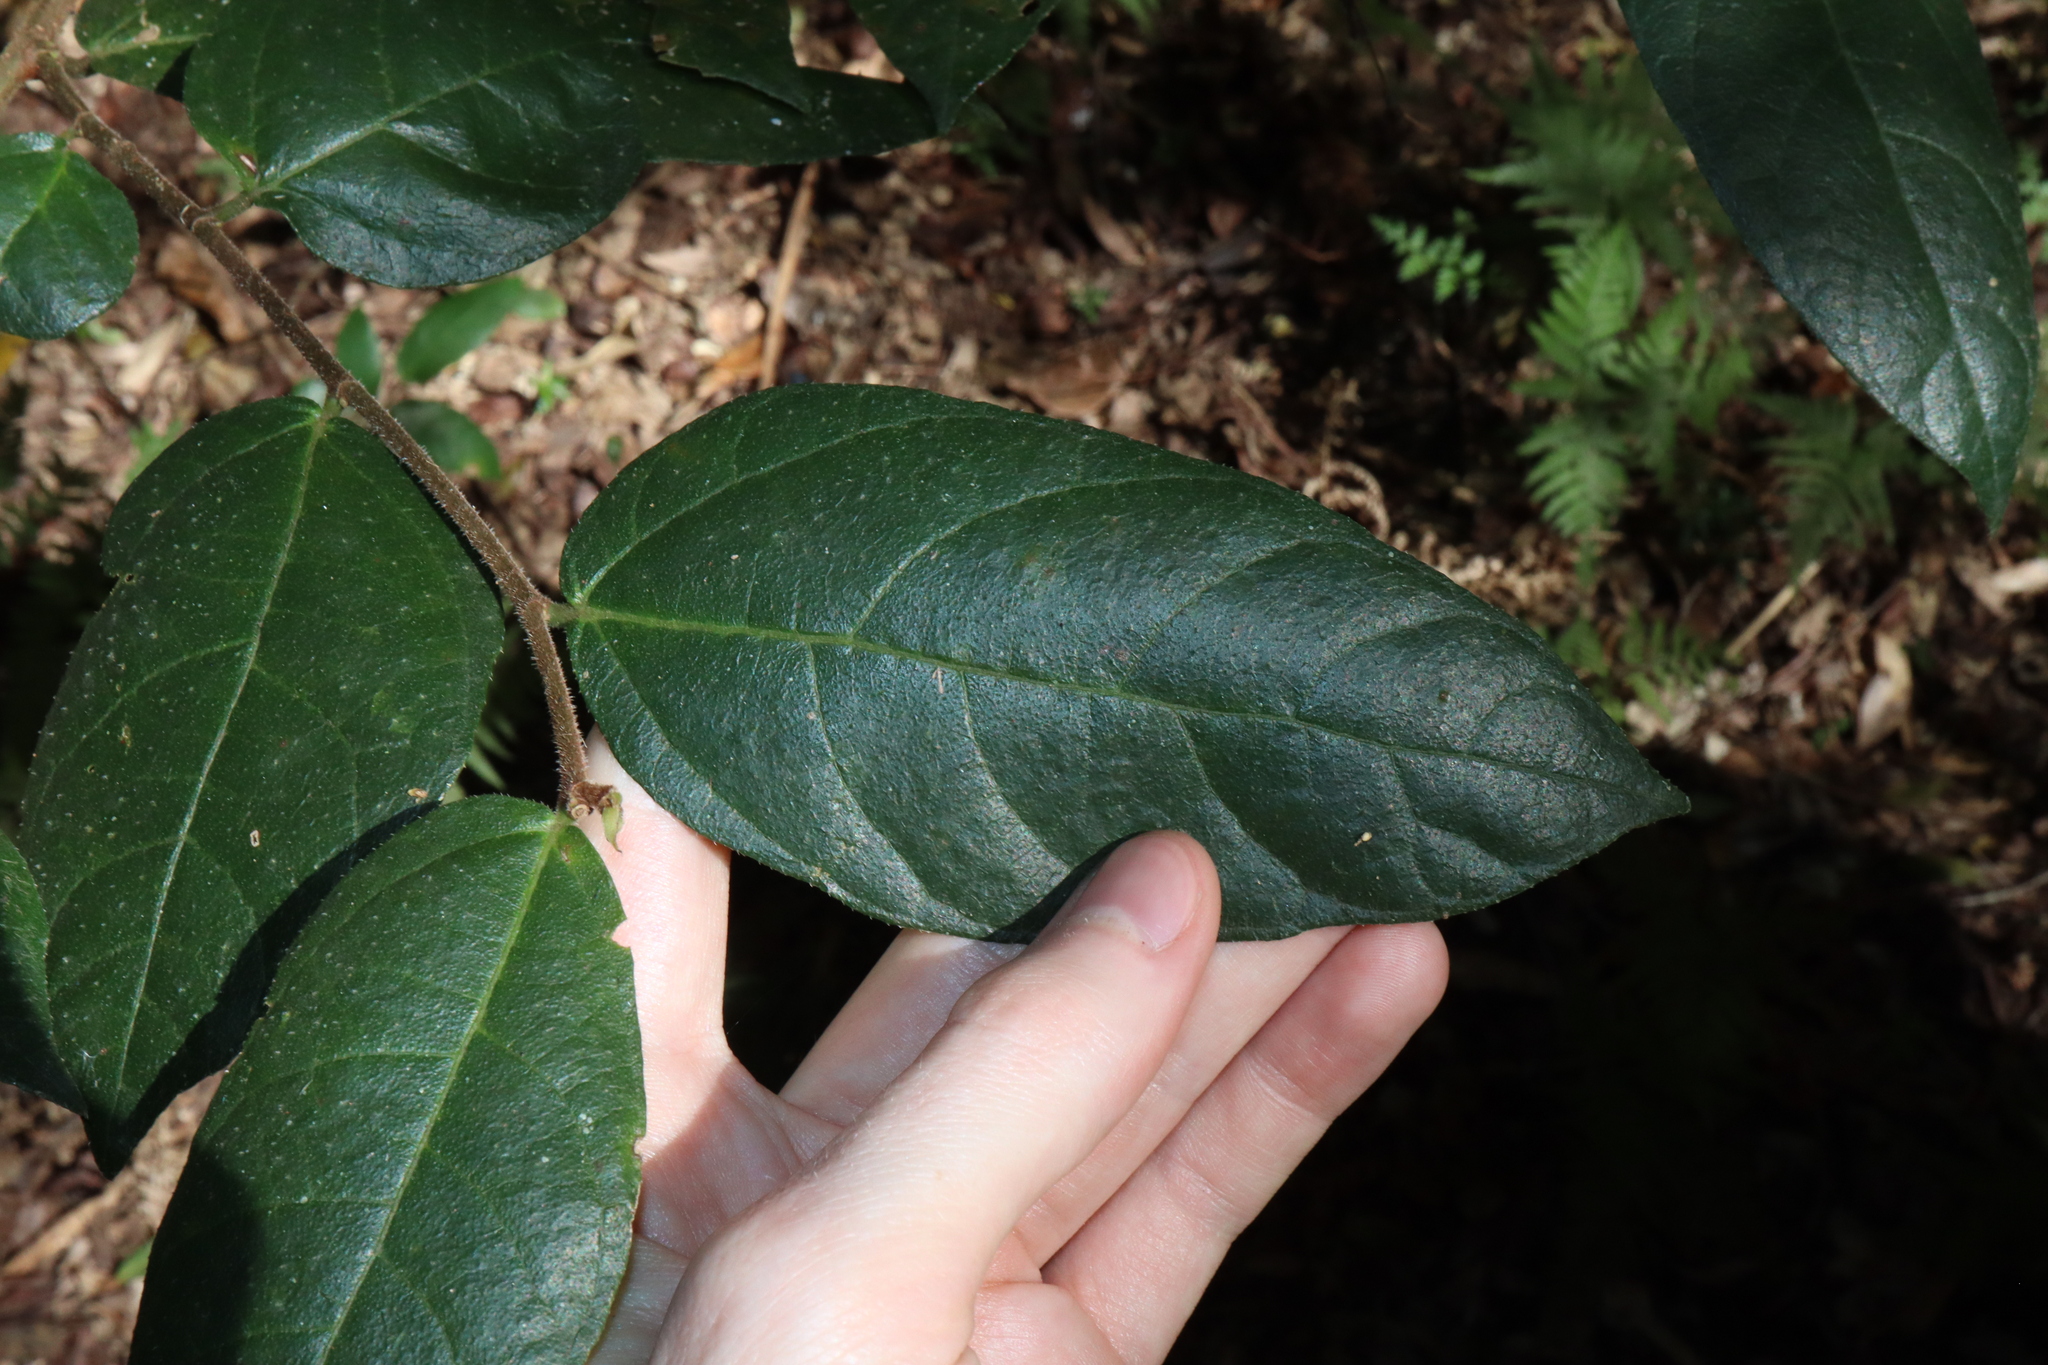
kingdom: Plantae
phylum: Tracheophyta
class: Magnoliopsida
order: Rosales
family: Moraceae
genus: Ficus
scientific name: Ficus coronata
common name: Creek sandpaper fig
